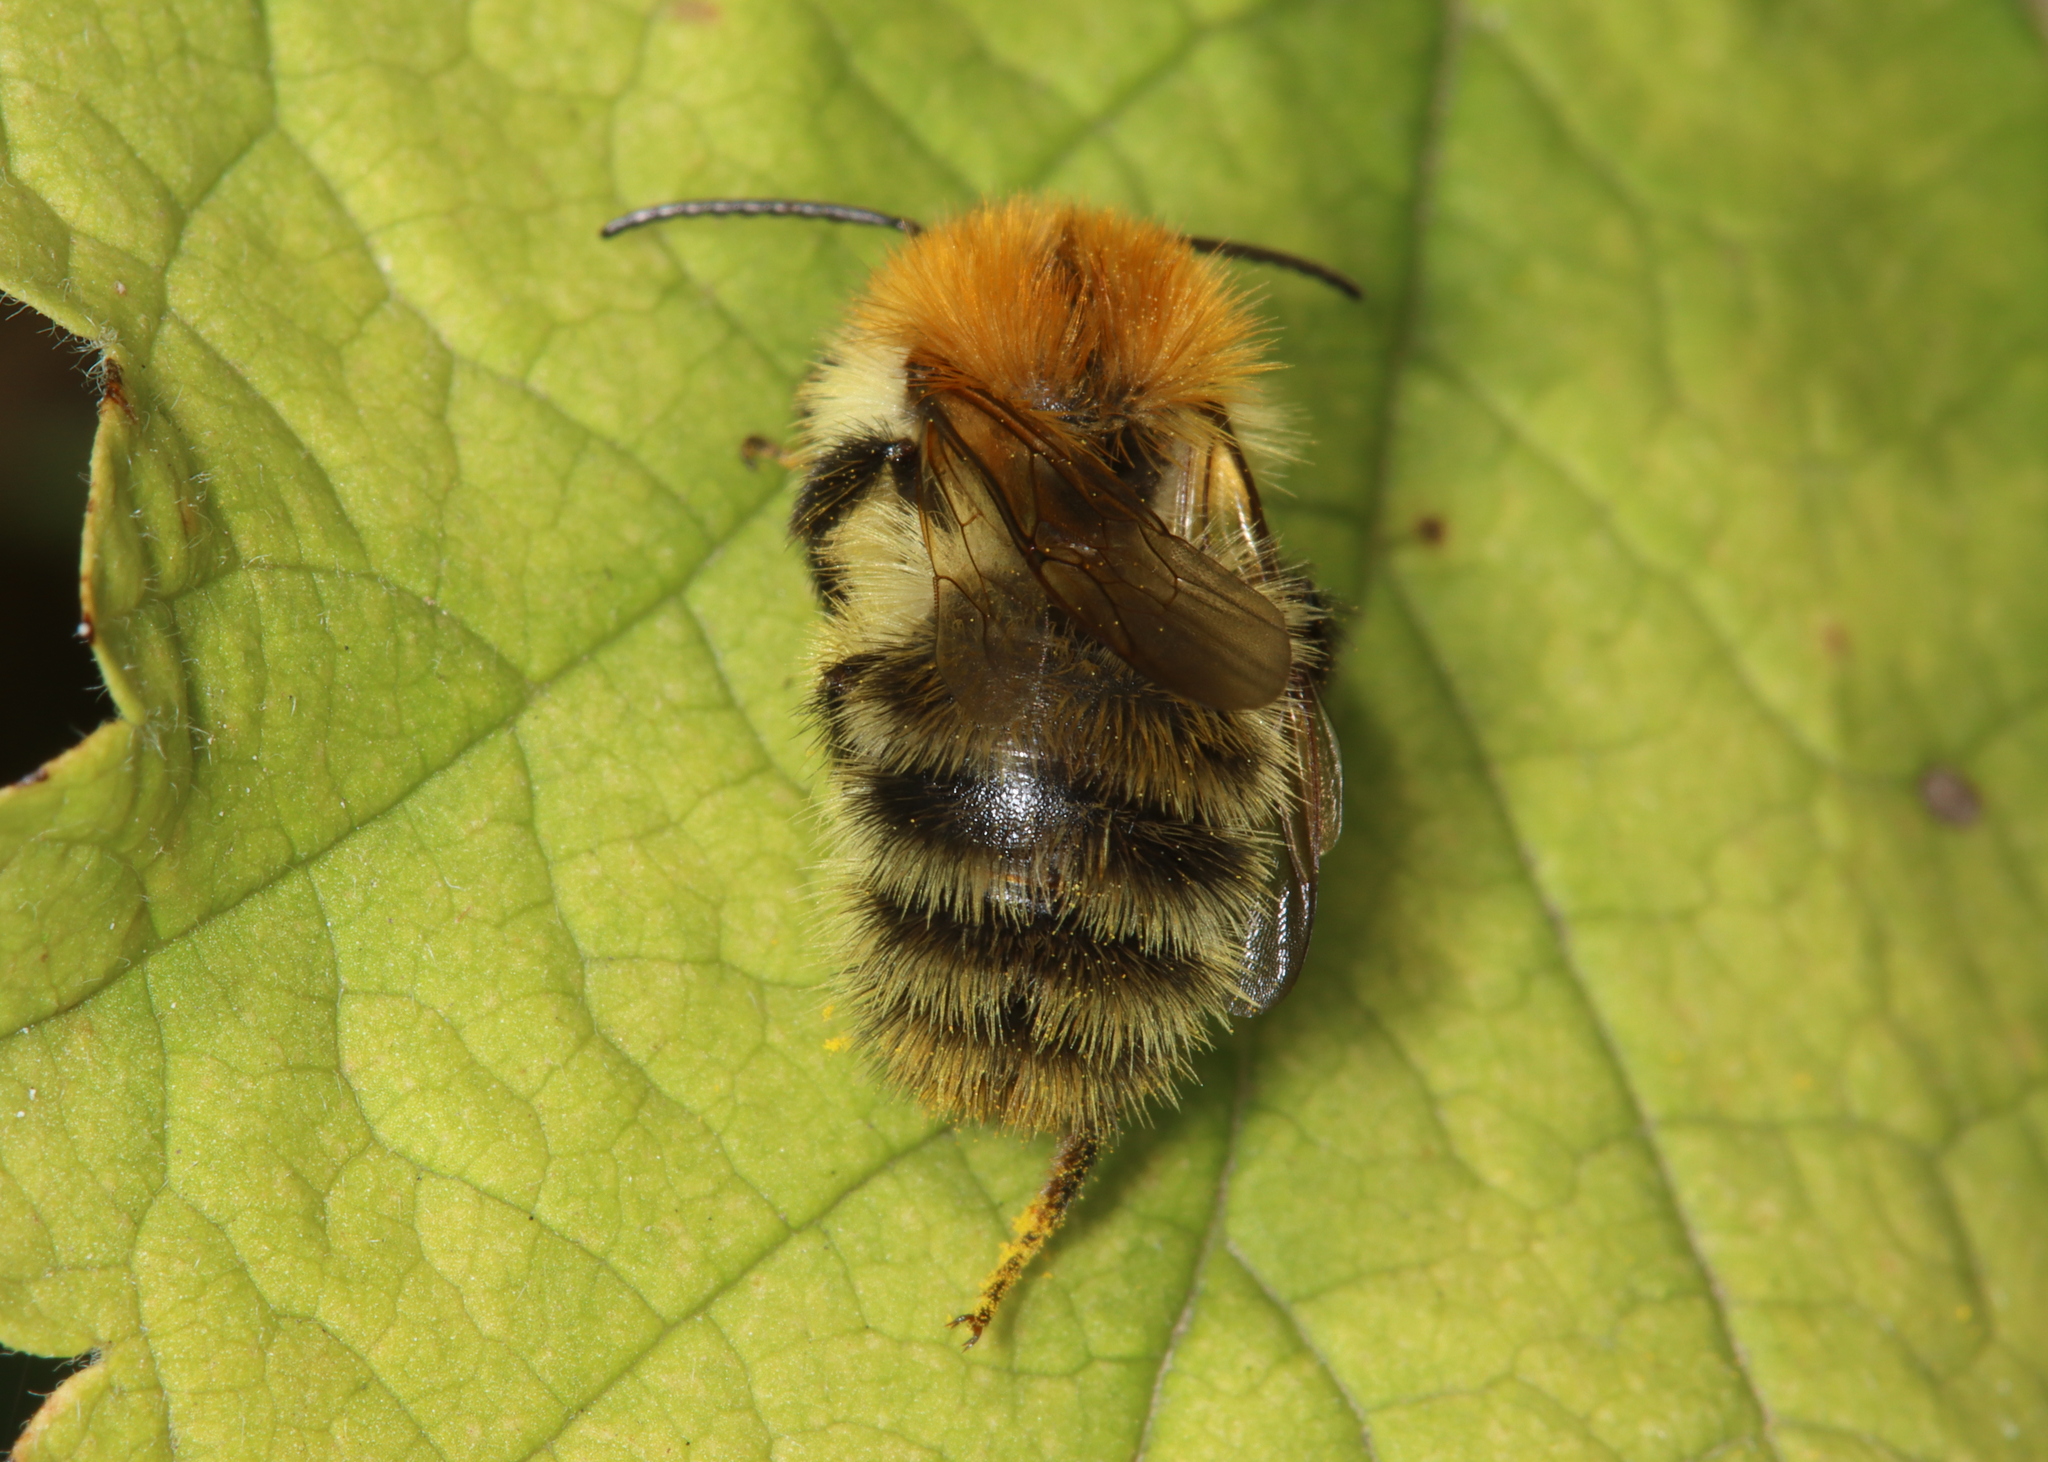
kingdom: Animalia
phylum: Arthropoda
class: Insecta
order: Hymenoptera
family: Apidae
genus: Bombus
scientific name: Bombus pascuorum
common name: Common carder bee
